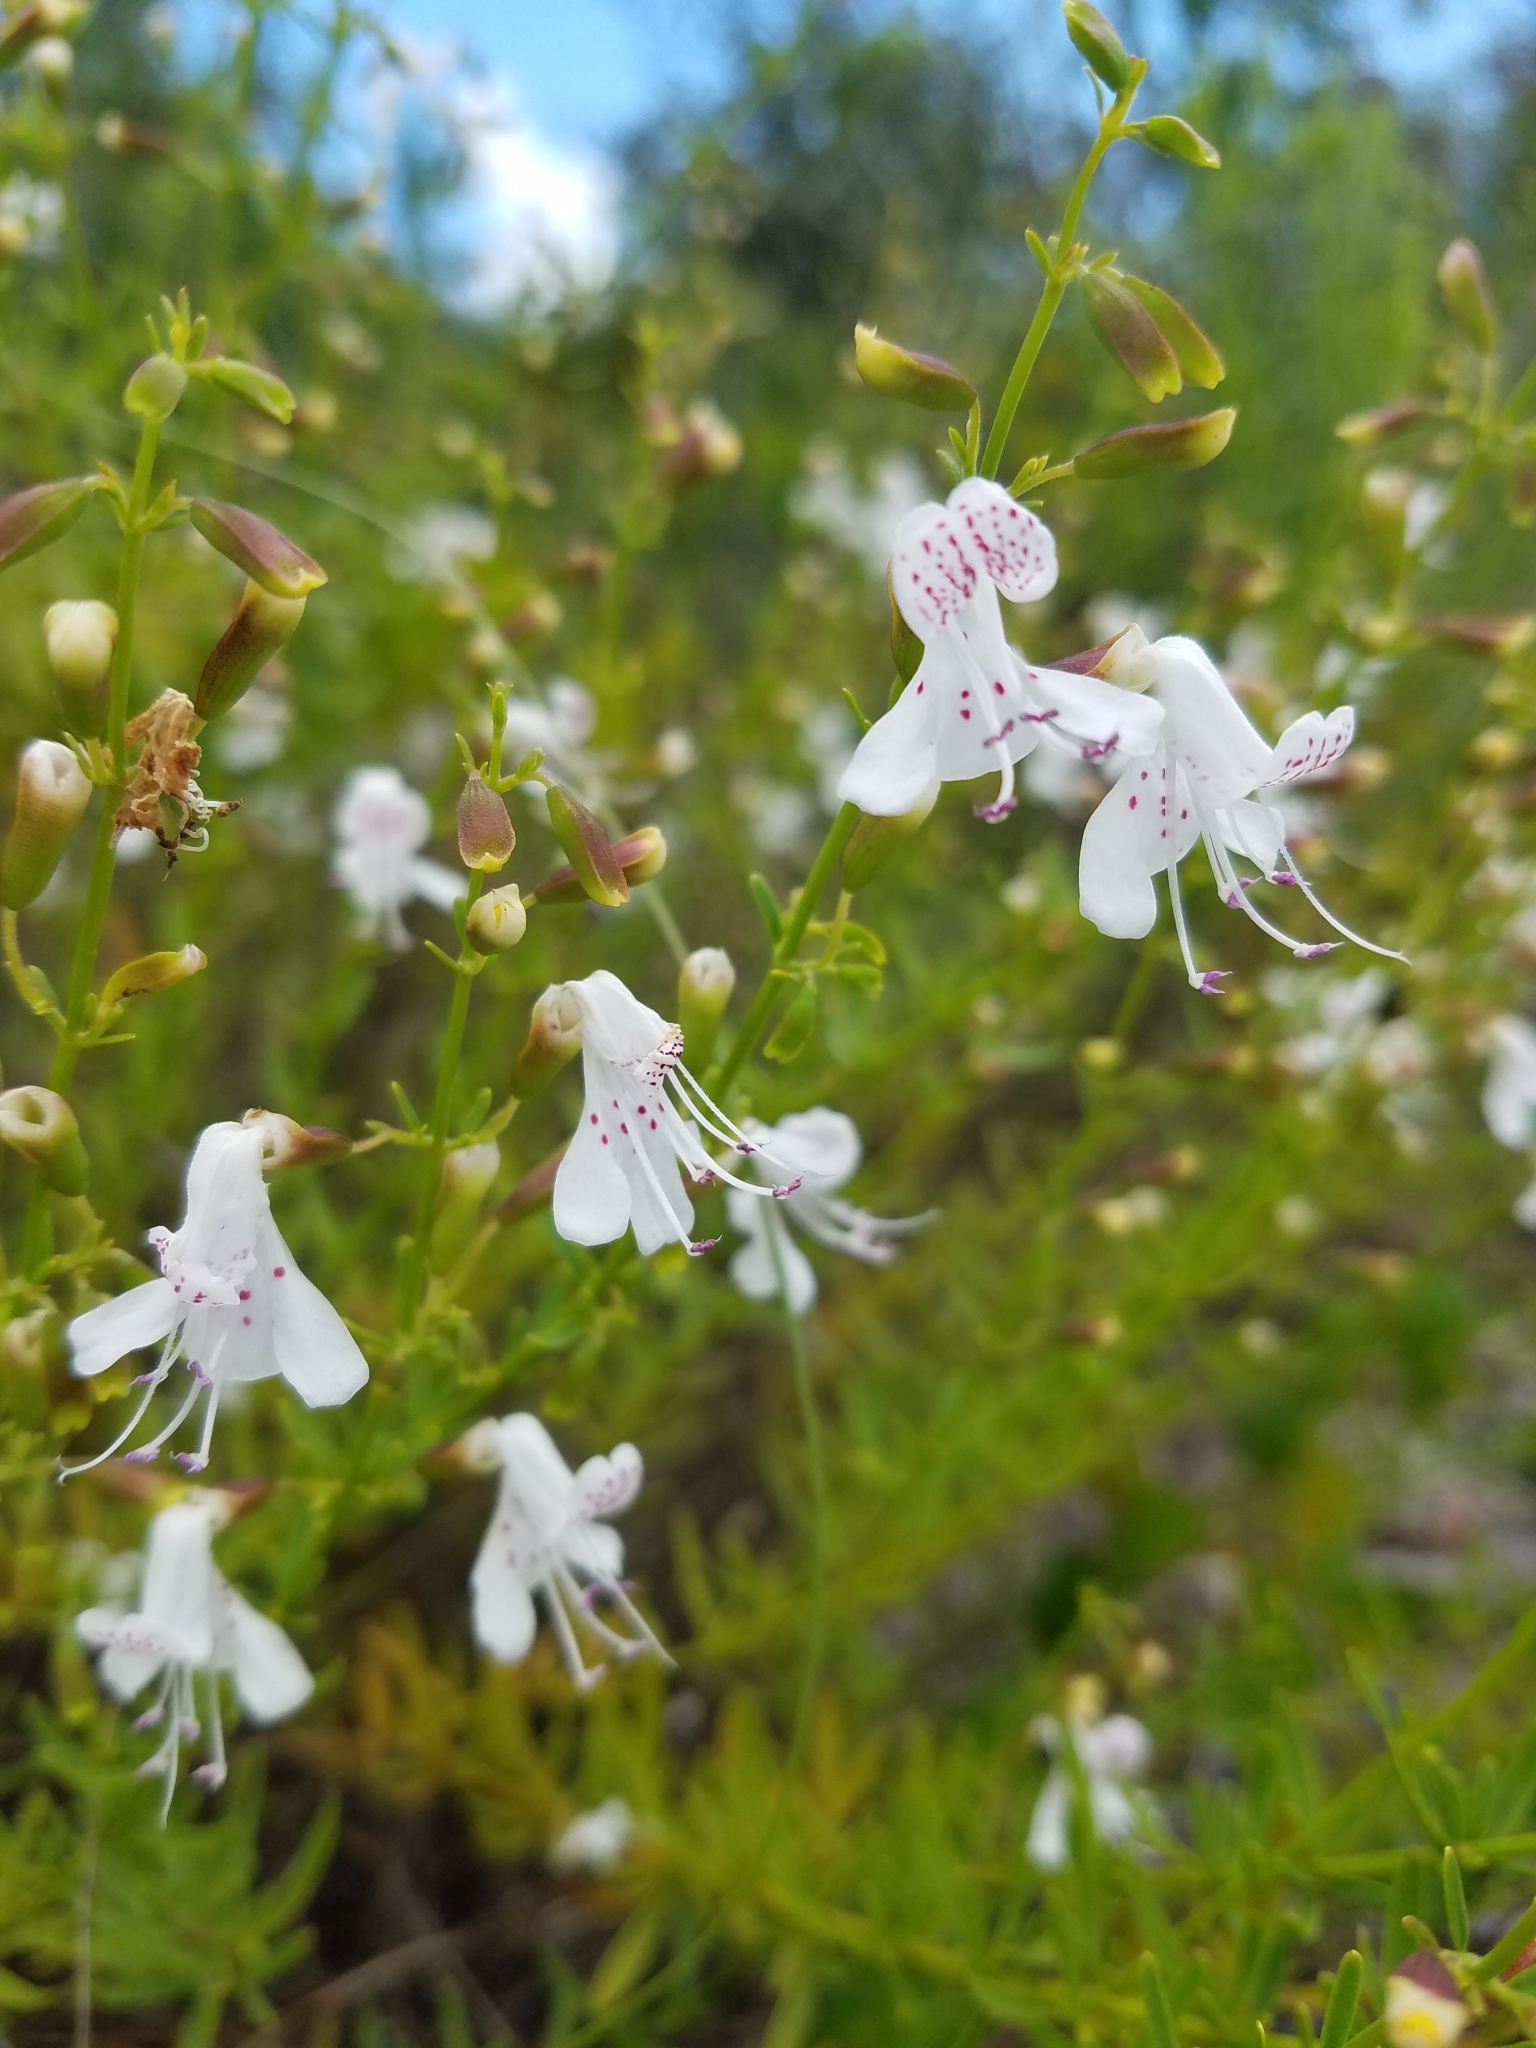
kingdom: Plantae
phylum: Tracheophyta
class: Magnoliopsida
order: Lamiales
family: Lamiaceae
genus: Dicerandra
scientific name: Dicerandra frutescens
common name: Scrub-mint
